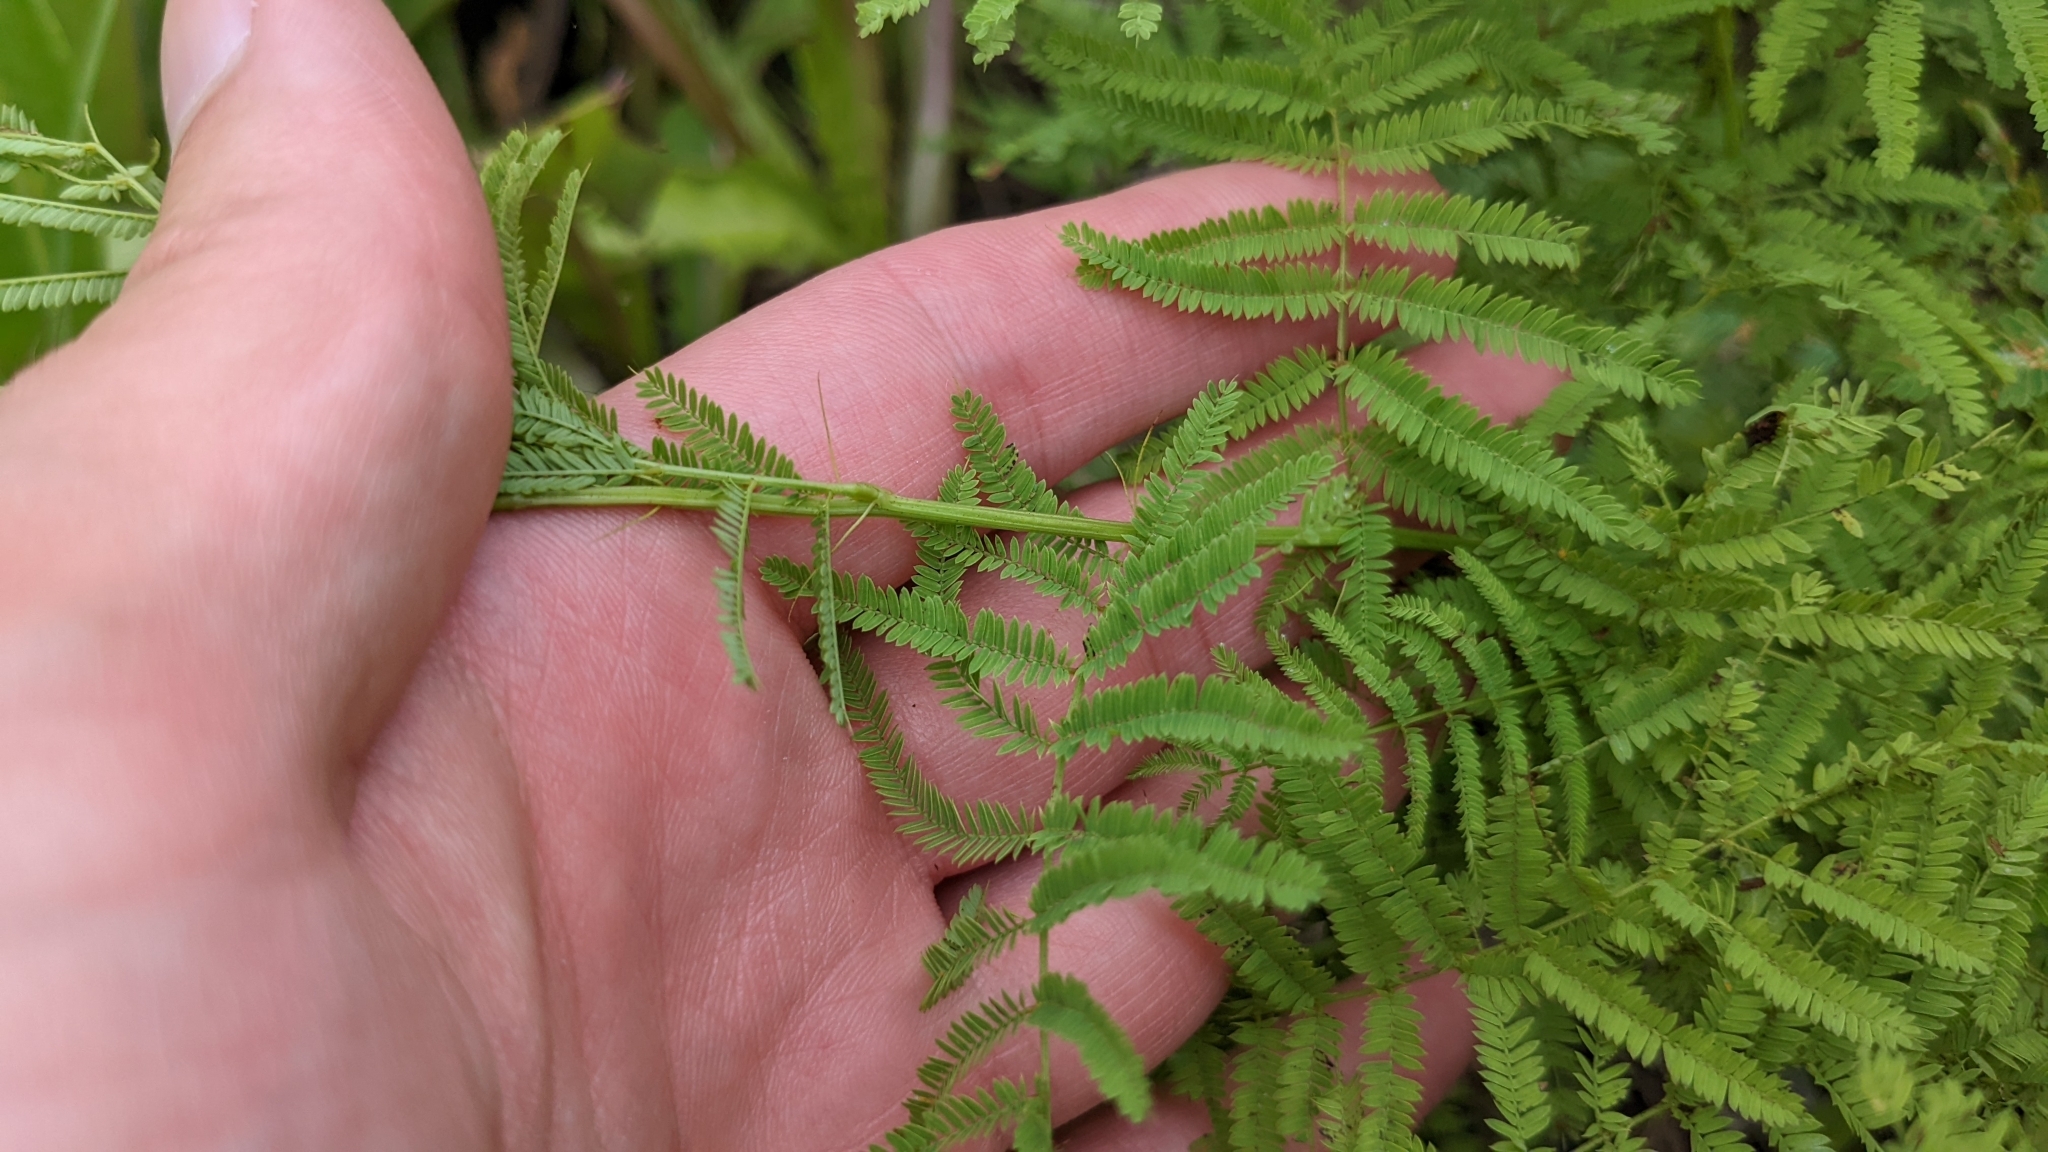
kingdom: Plantae
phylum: Tracheophyta
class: Magnoliopsida
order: Fabales
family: Fabaceae
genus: Desmanthus
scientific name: Desmanthus illinoensis
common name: Illinois bundle-flower
